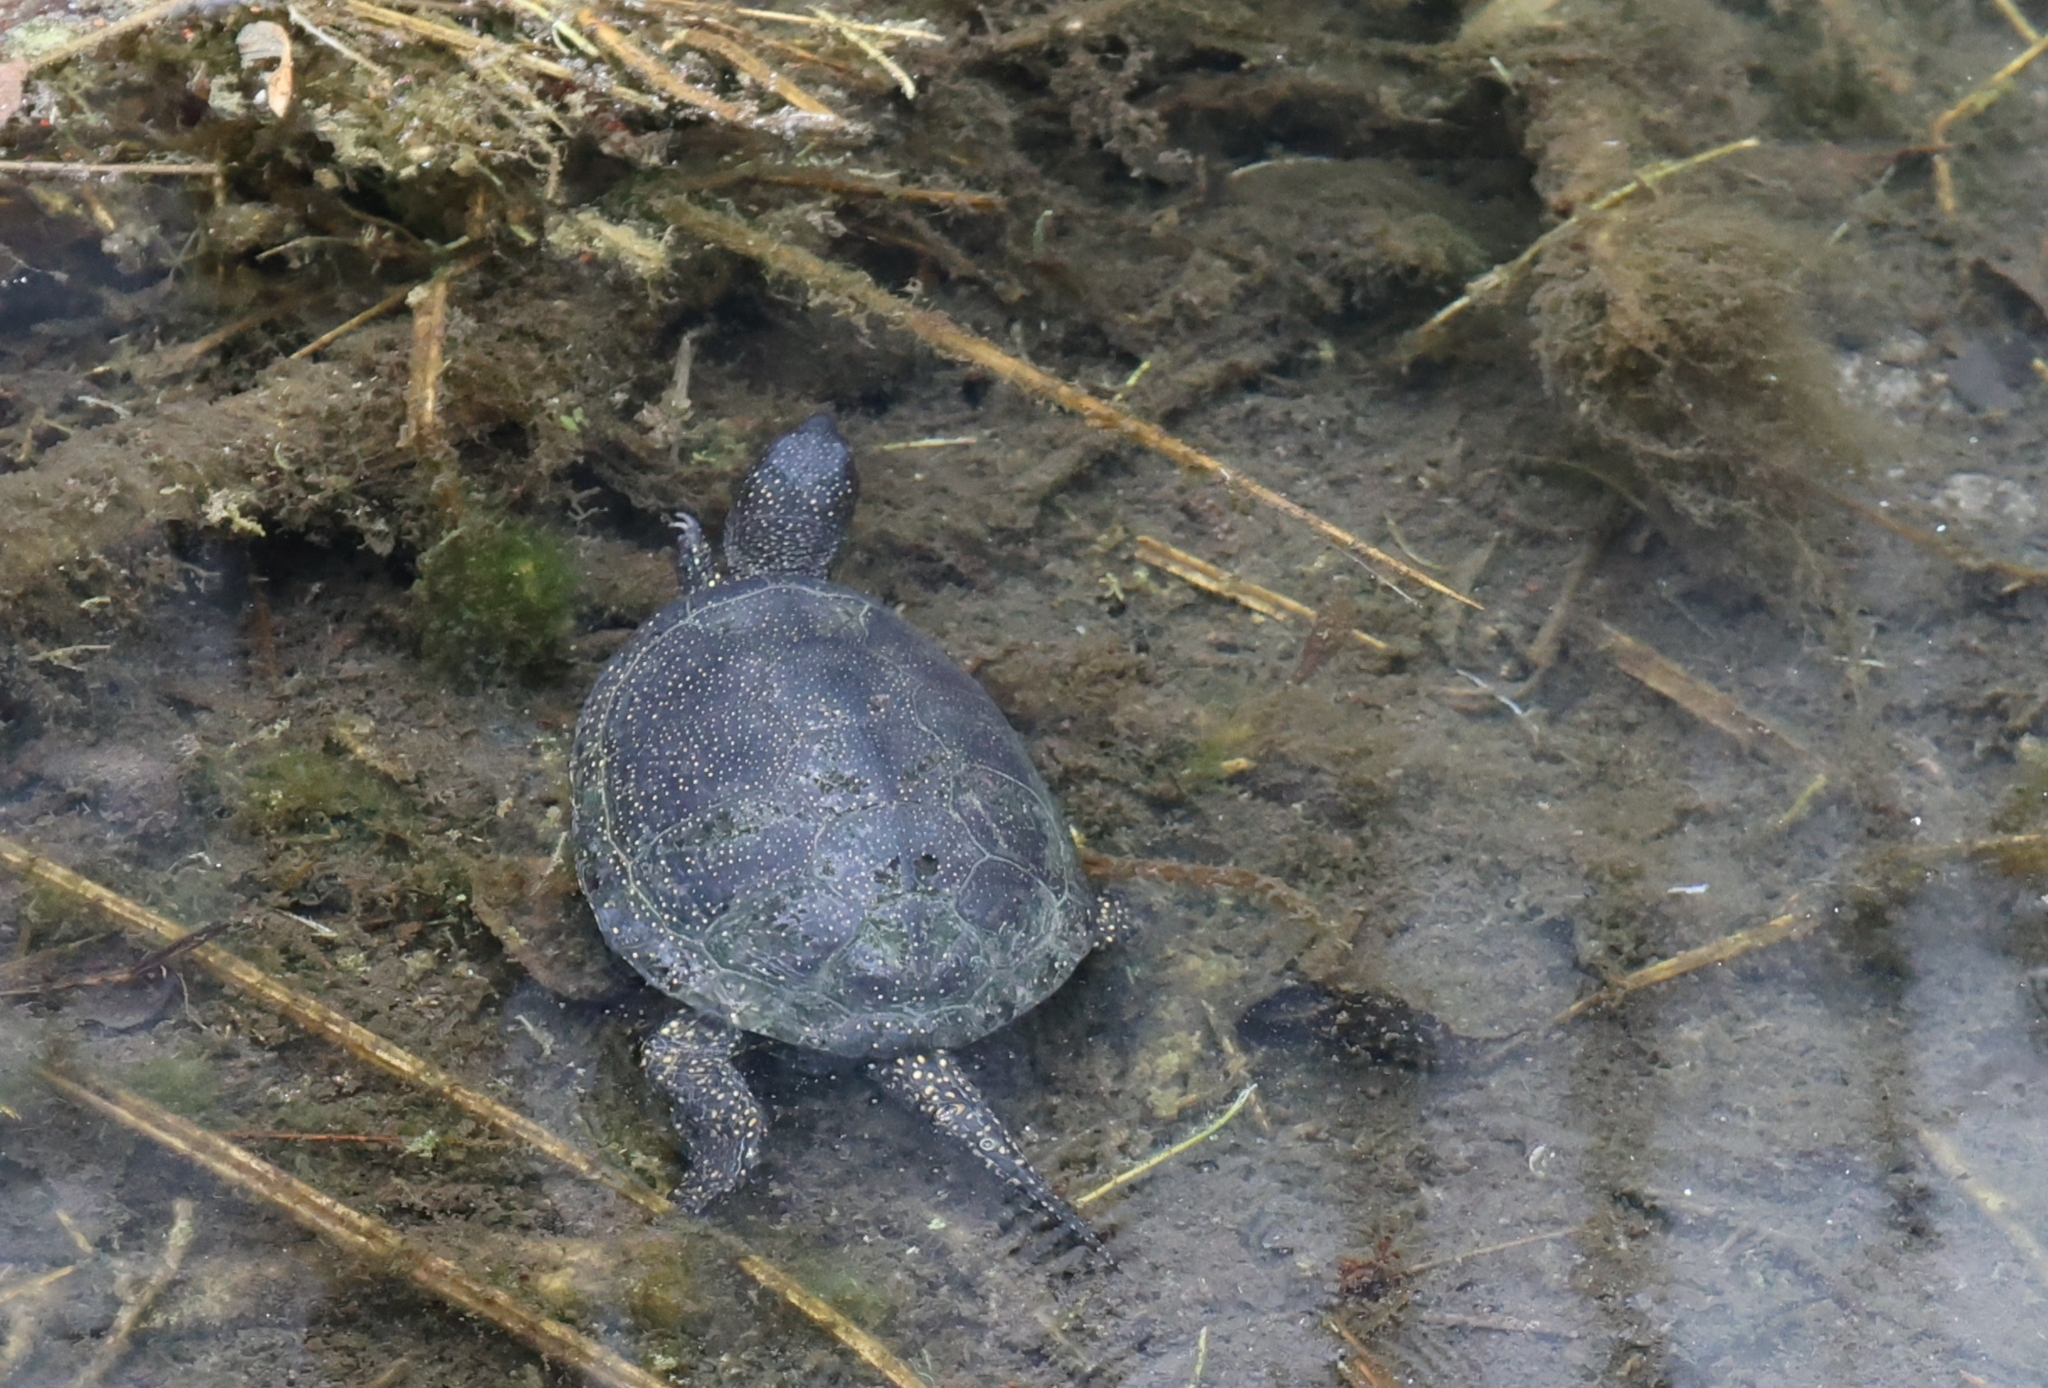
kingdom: Animalia
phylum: Chordata
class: Testudines
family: Emydidae
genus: Emys
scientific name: Emys orbicularis
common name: European pond turtle
